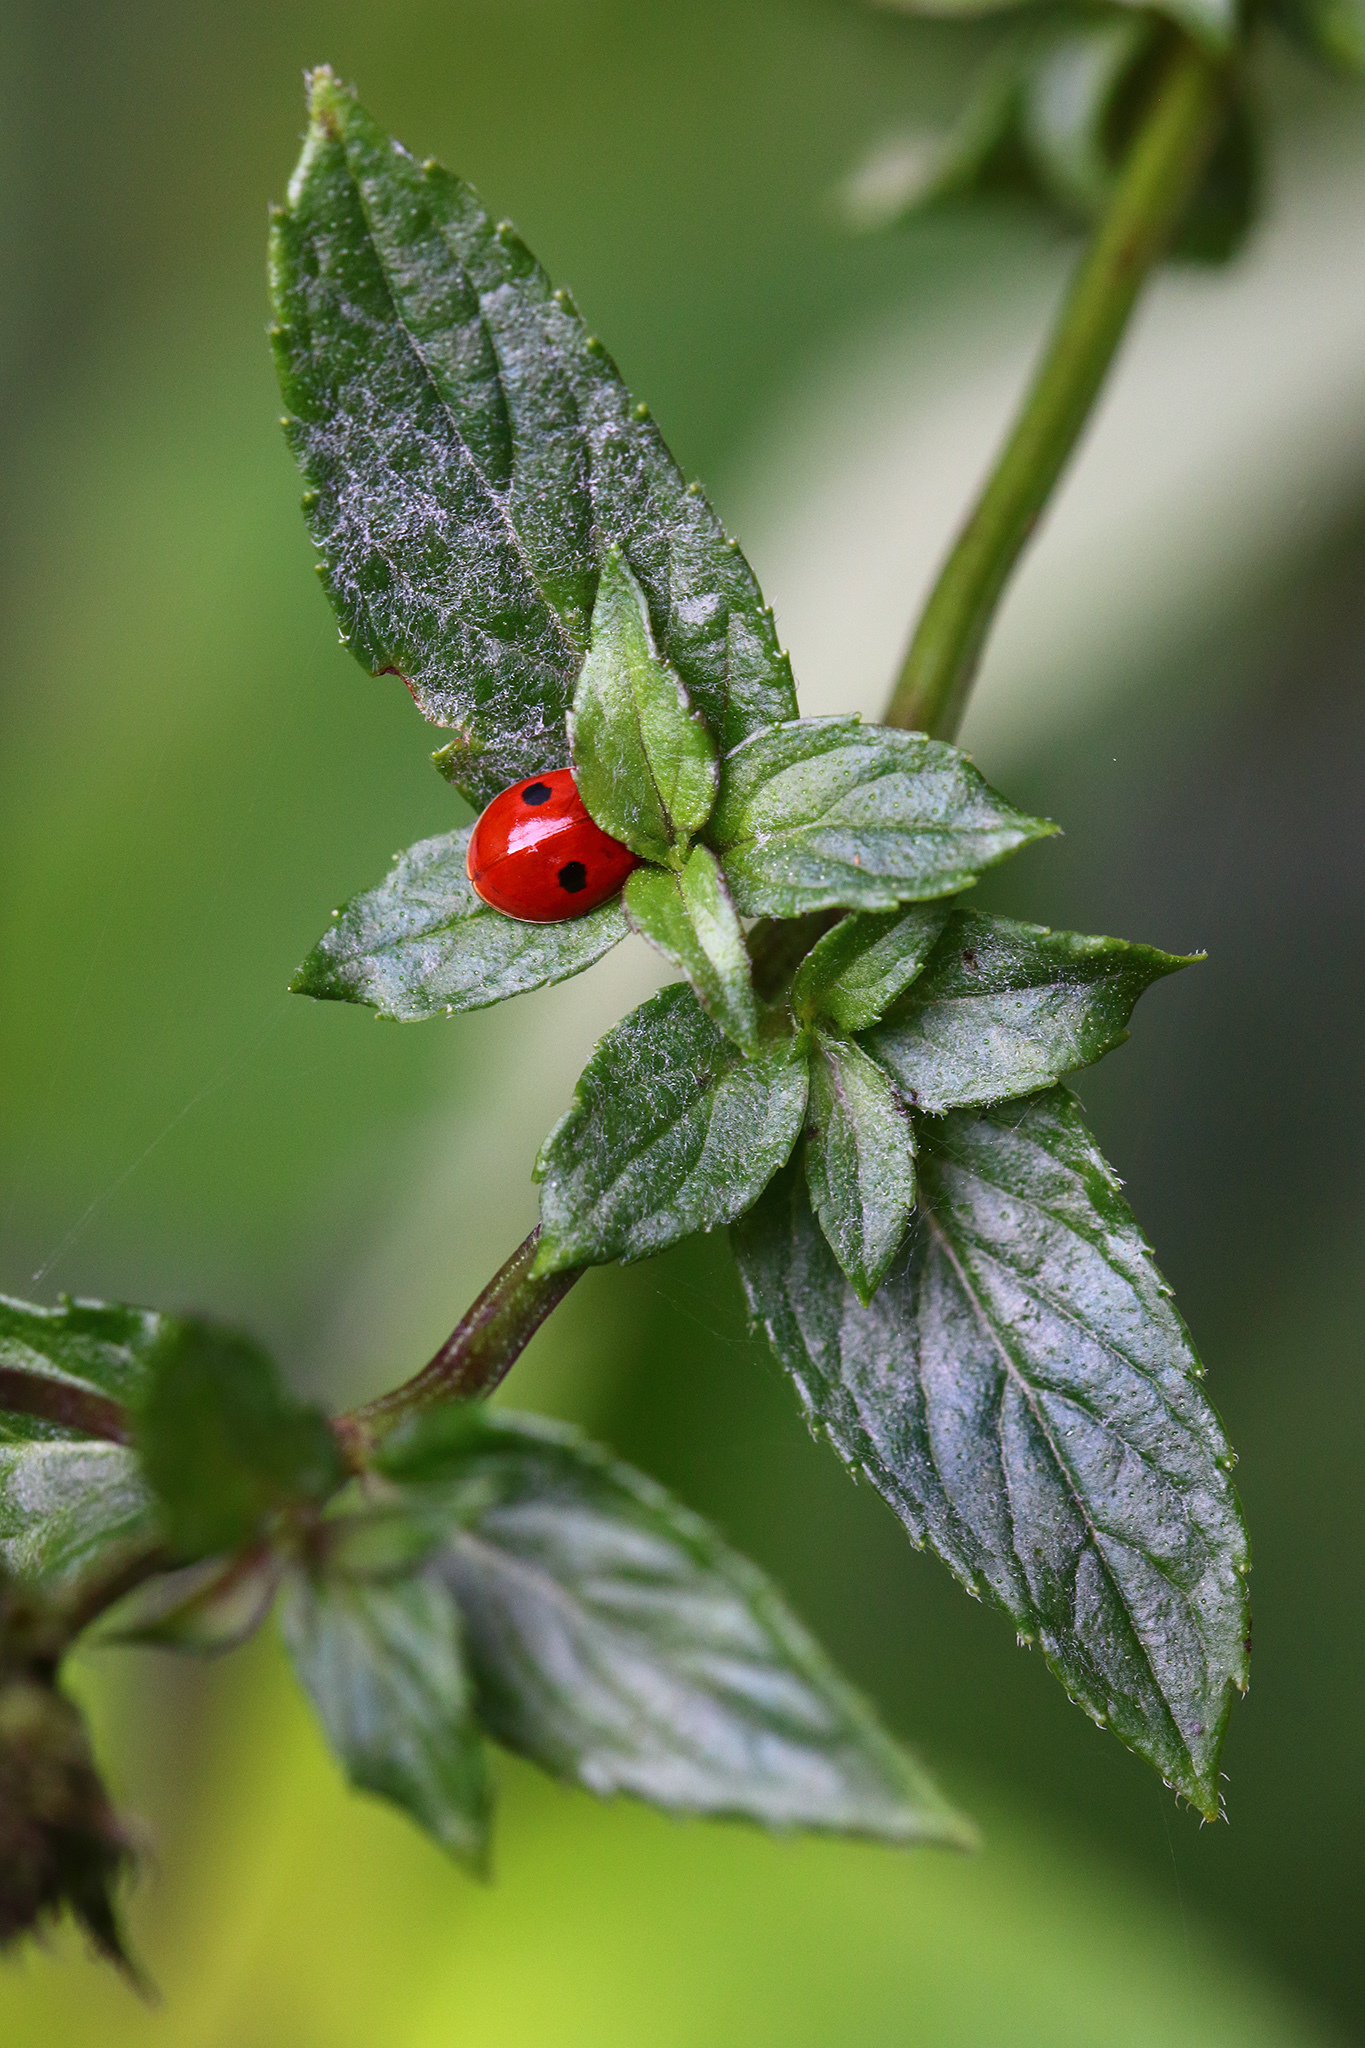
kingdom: Animalia
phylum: Arthropoda
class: Insecta
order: Coleoptera
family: Coccinellidae
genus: Adalia
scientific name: Adalia bipunctata
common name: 2-spot ladybird
